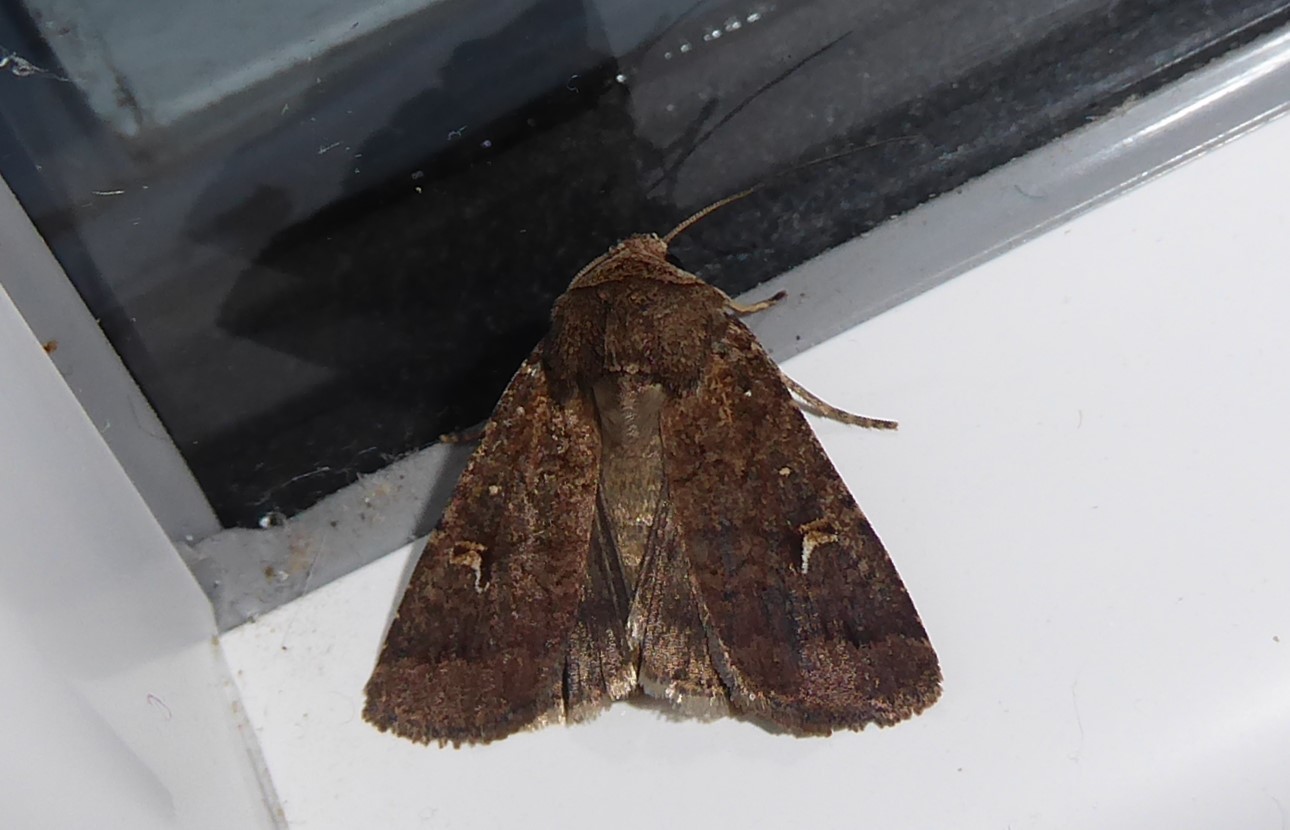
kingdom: Animalia
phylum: Arthropoda
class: Insecta
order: Lepidoptera
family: Noctuidae
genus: Proteuxoa
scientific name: Proteuxoa tetronycha
